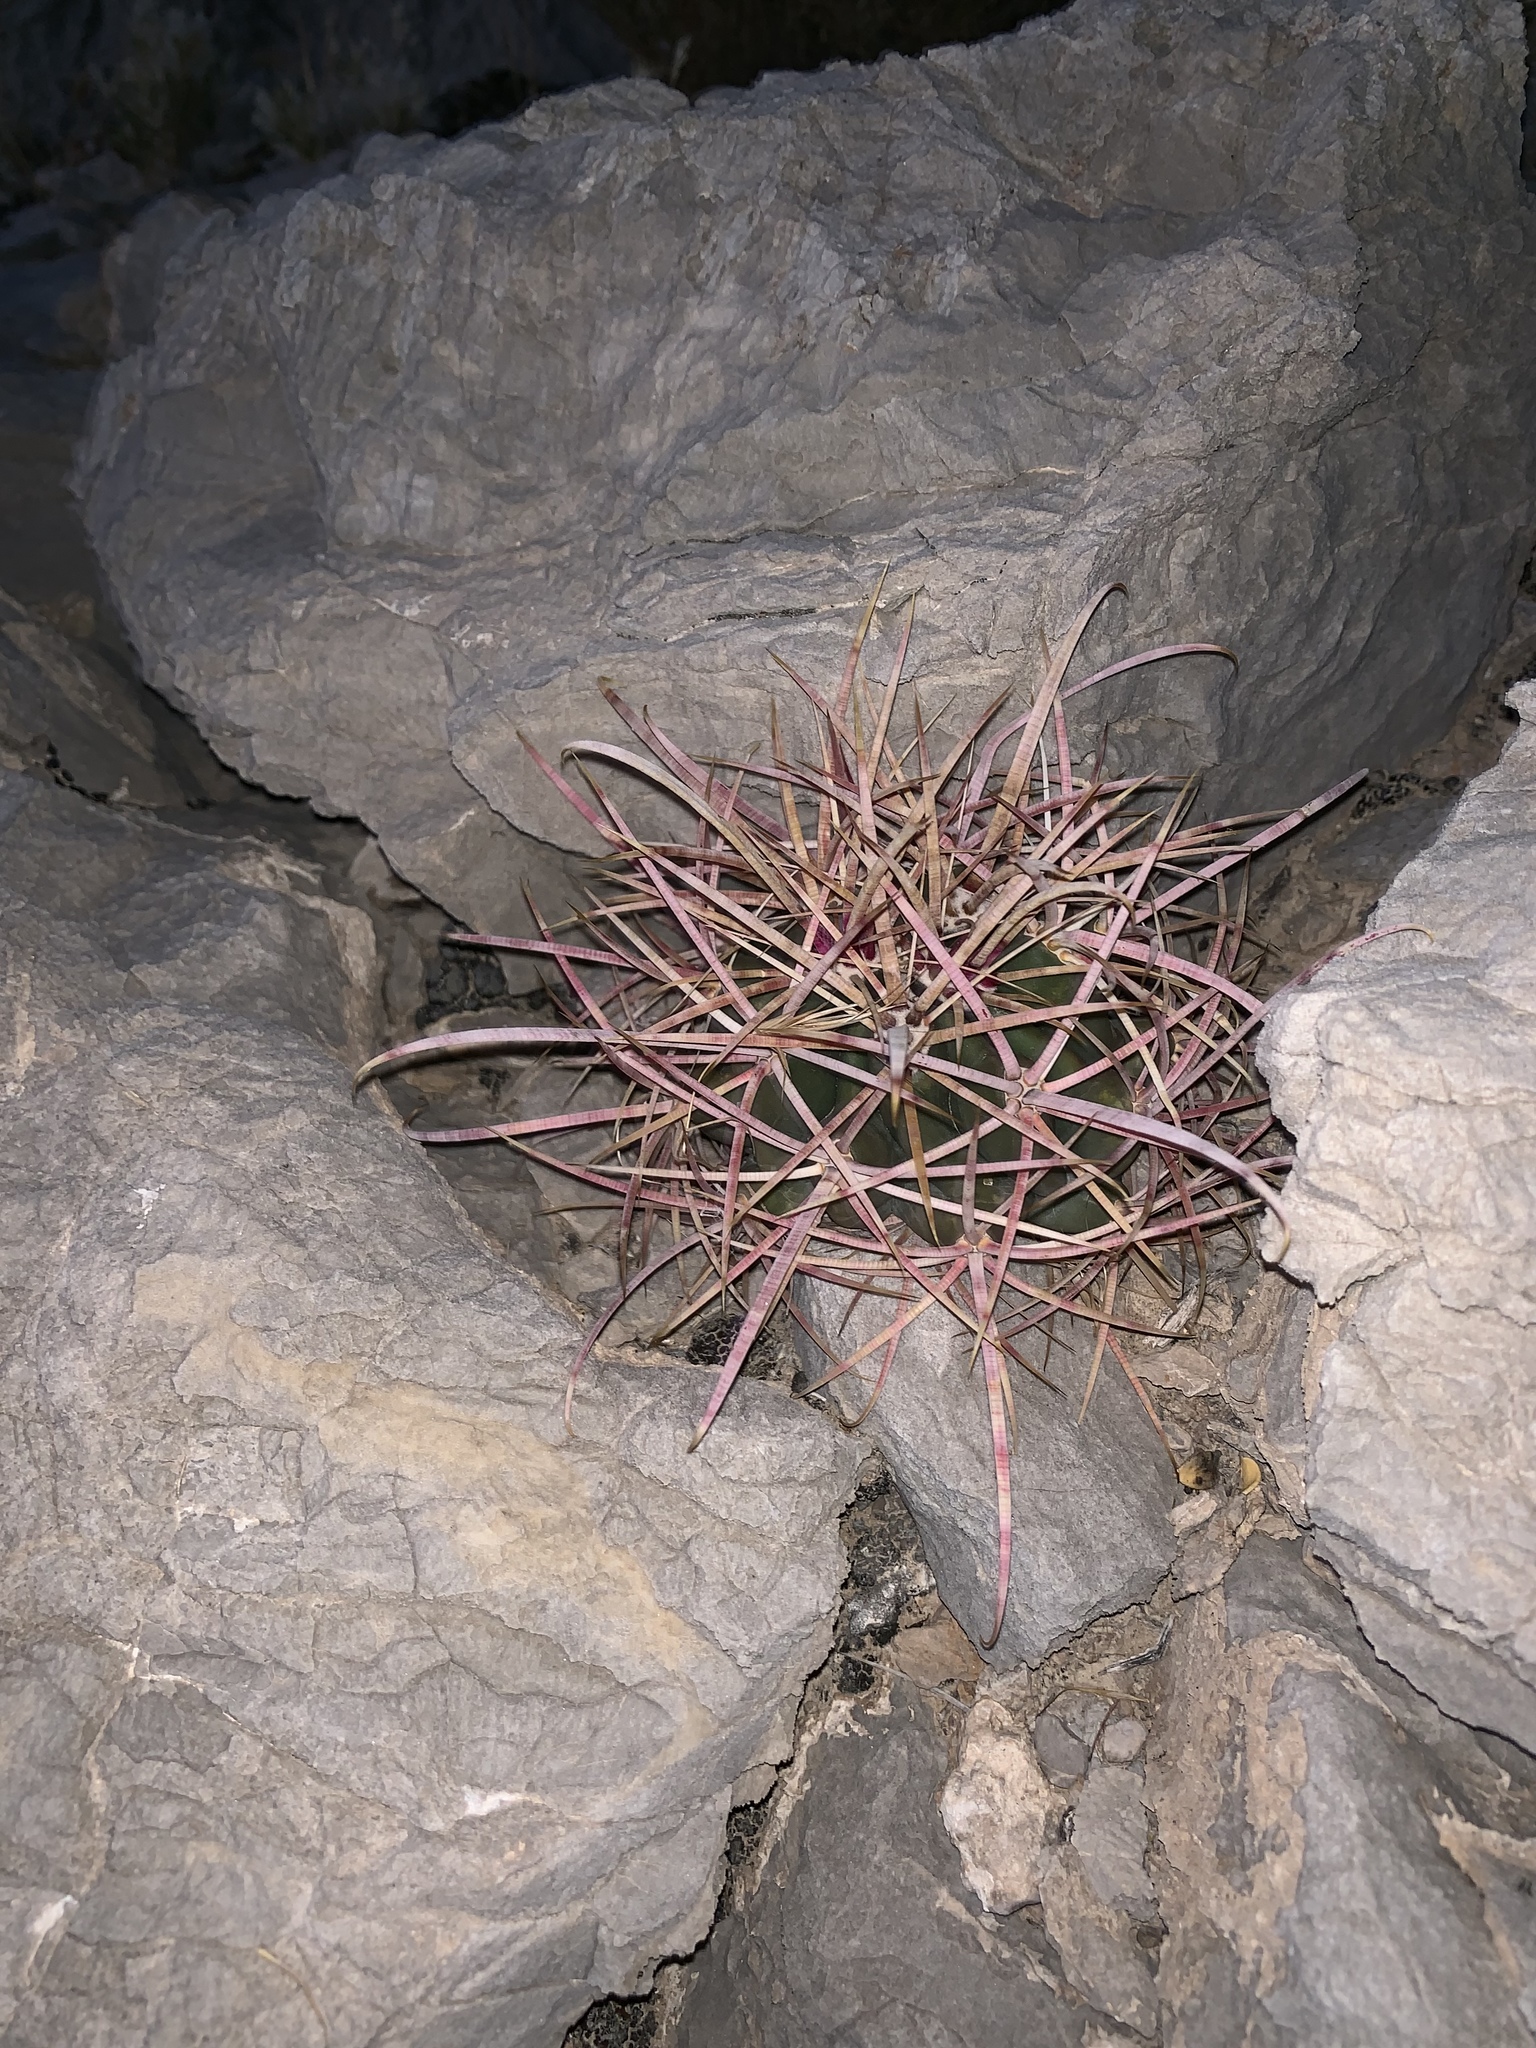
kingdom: Plantae
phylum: Tracheophyta
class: Magnoliopsida
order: Caryophyllales
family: Cactaceae
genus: Echinocactus
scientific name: Echinocactus polycephalus
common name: Cottontop cactus
